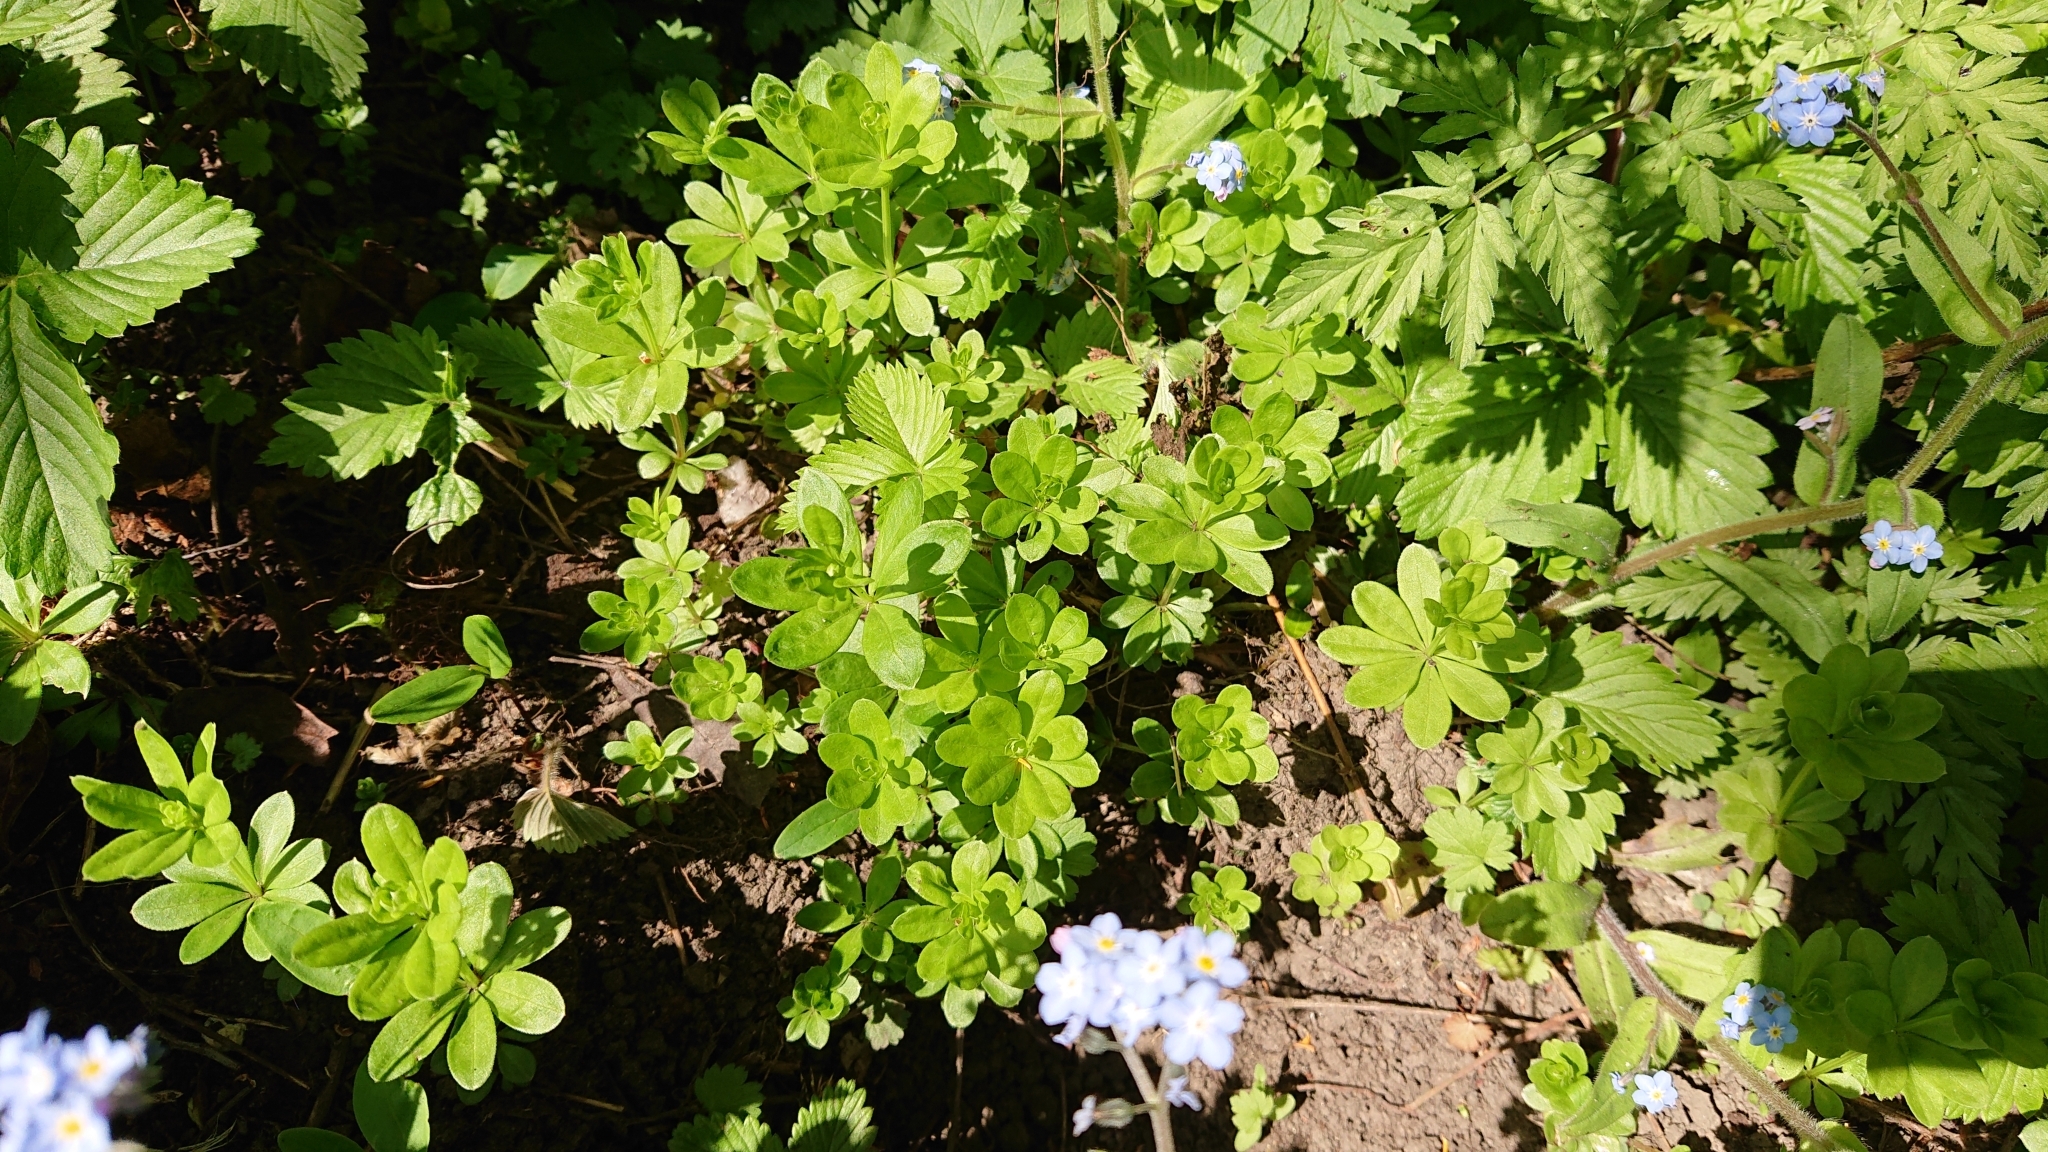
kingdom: Plantae
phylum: Tracheophyta
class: Magnoliopsida
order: Gentianales
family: Rubiaceae
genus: Galium
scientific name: Galium odoratum
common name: Sweet woodruff
